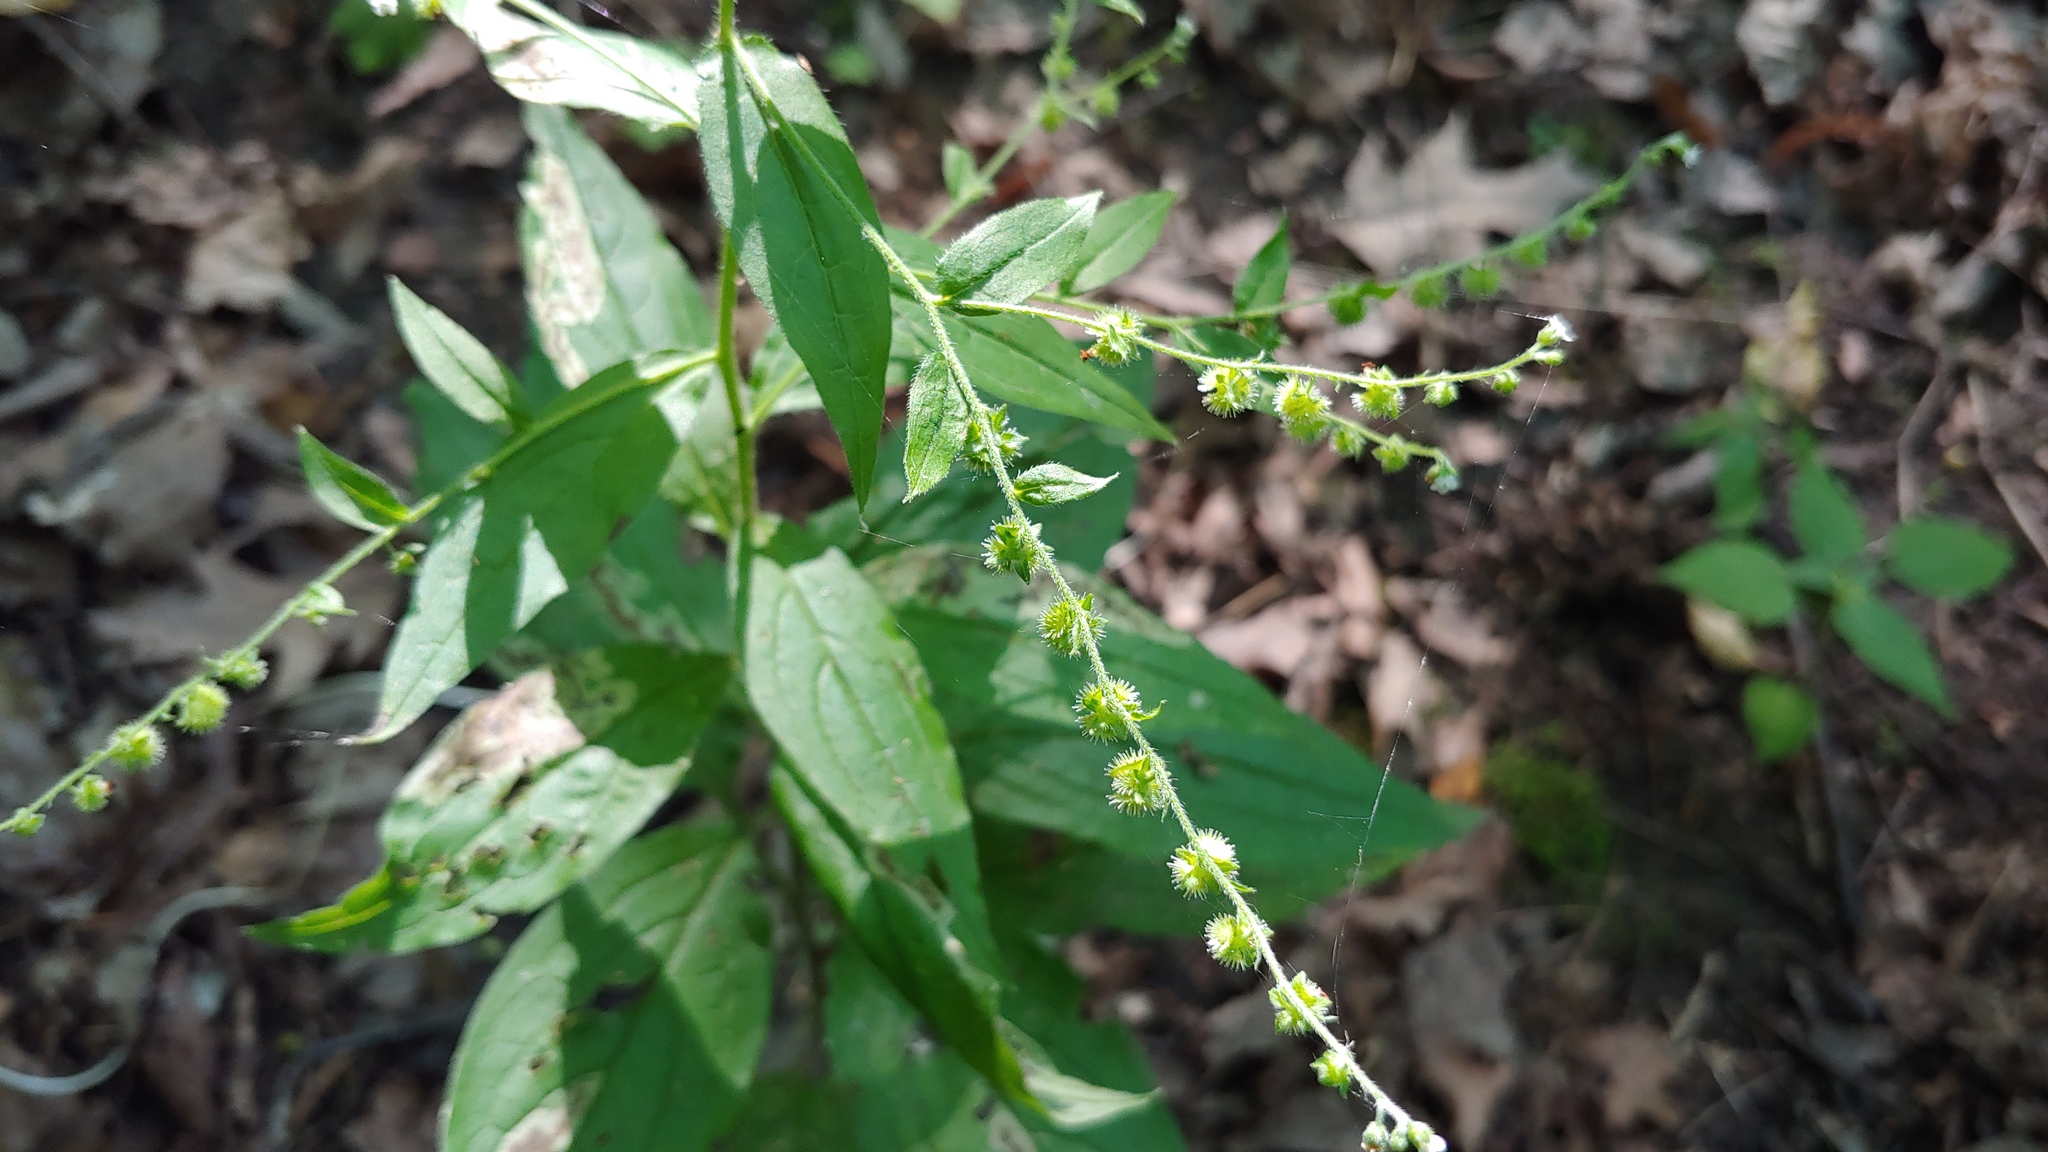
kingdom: Plantae
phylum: Tracheophyta
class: Magnoliopsida
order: Boraginales
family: Boraginaceae
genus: Hackelia
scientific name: Hackelia virginiana
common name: Beggar's-lice
